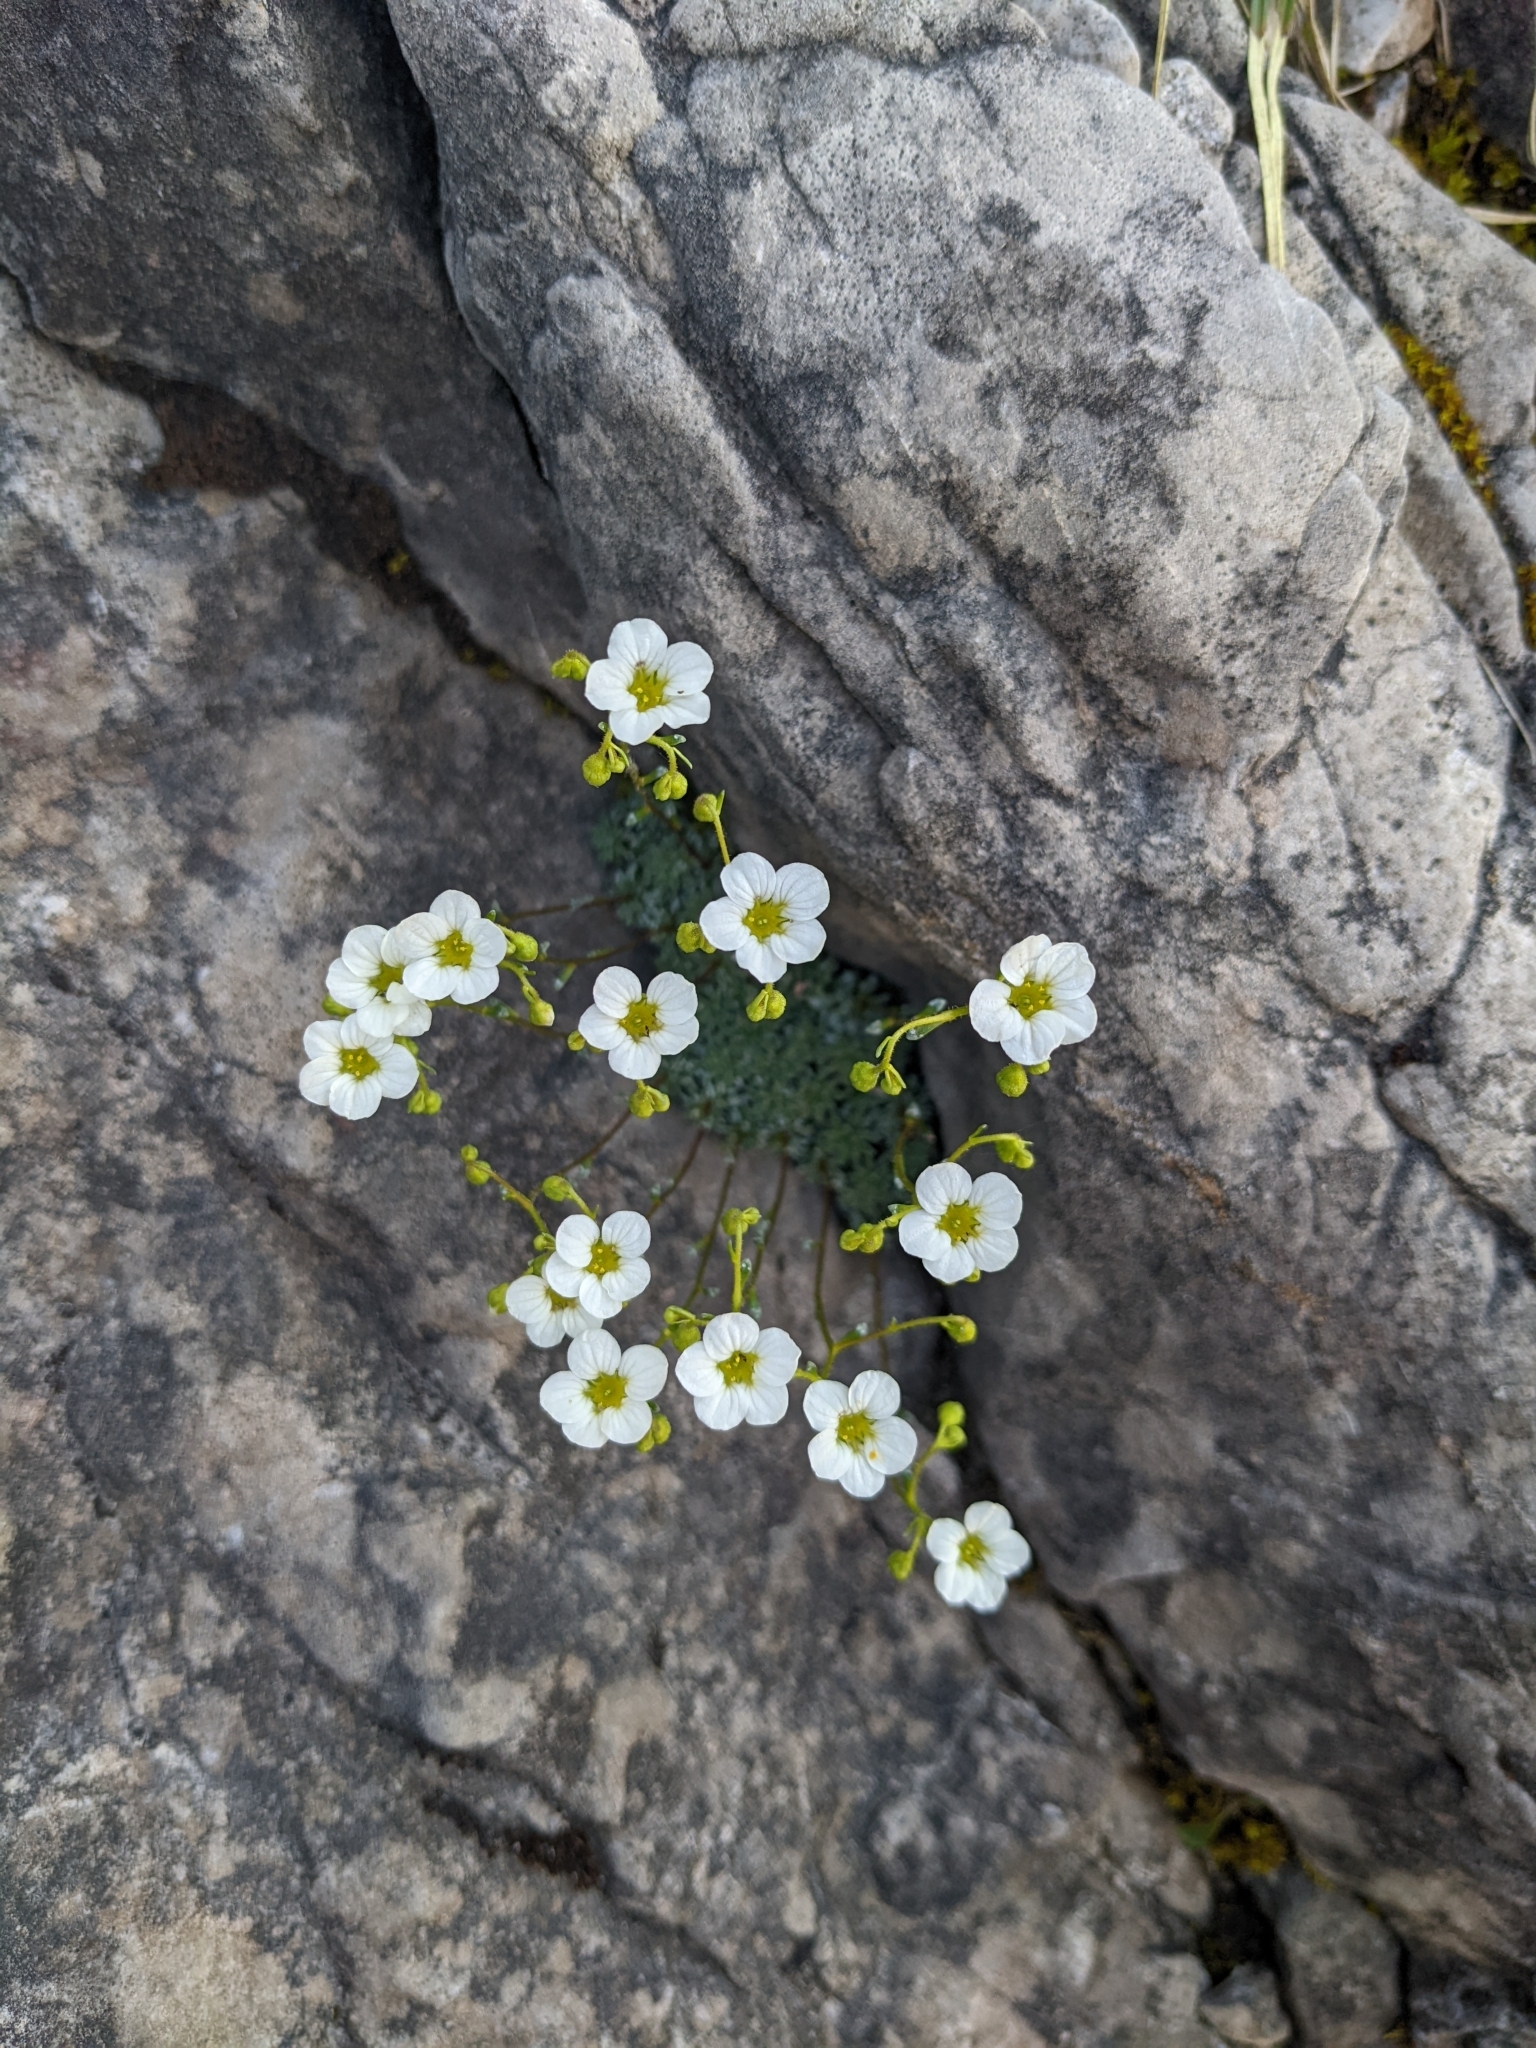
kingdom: Plantae
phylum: Tracheophyta
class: Magnoliopsida
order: Saxifragales
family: Saxifragaceae
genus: Saxifraga
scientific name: Saxifraga caesia
